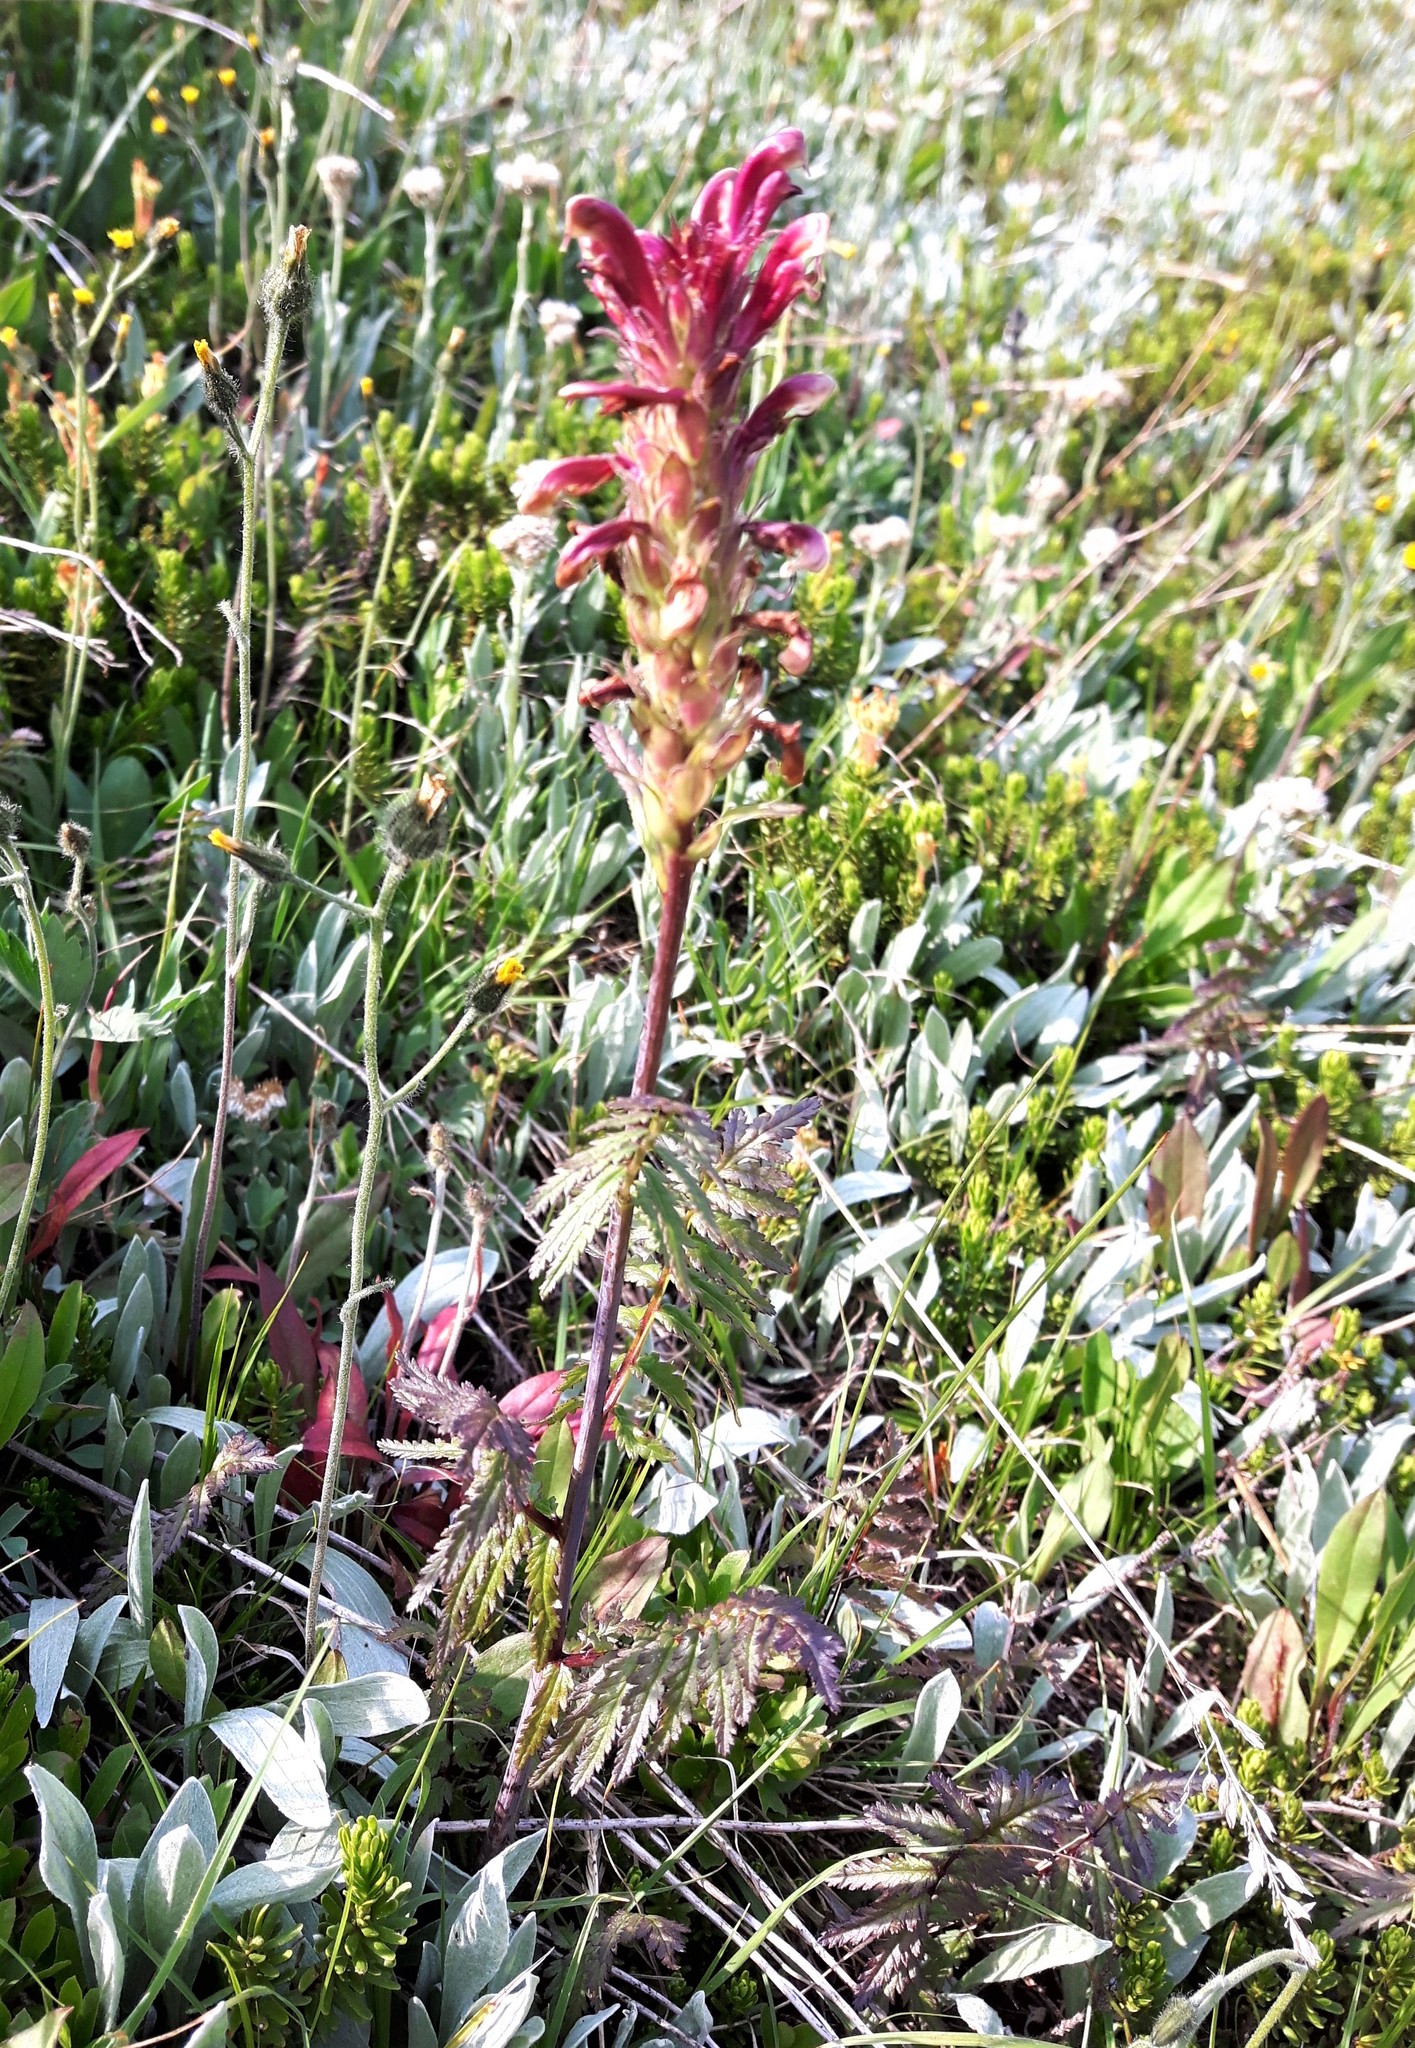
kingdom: Plantae
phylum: Tracheophyta
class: Magnoliopsida
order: Lamiales
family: Orobanchaceae
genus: Pedicularis
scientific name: Pedicularis bracteosa
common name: Bracted lousewort
